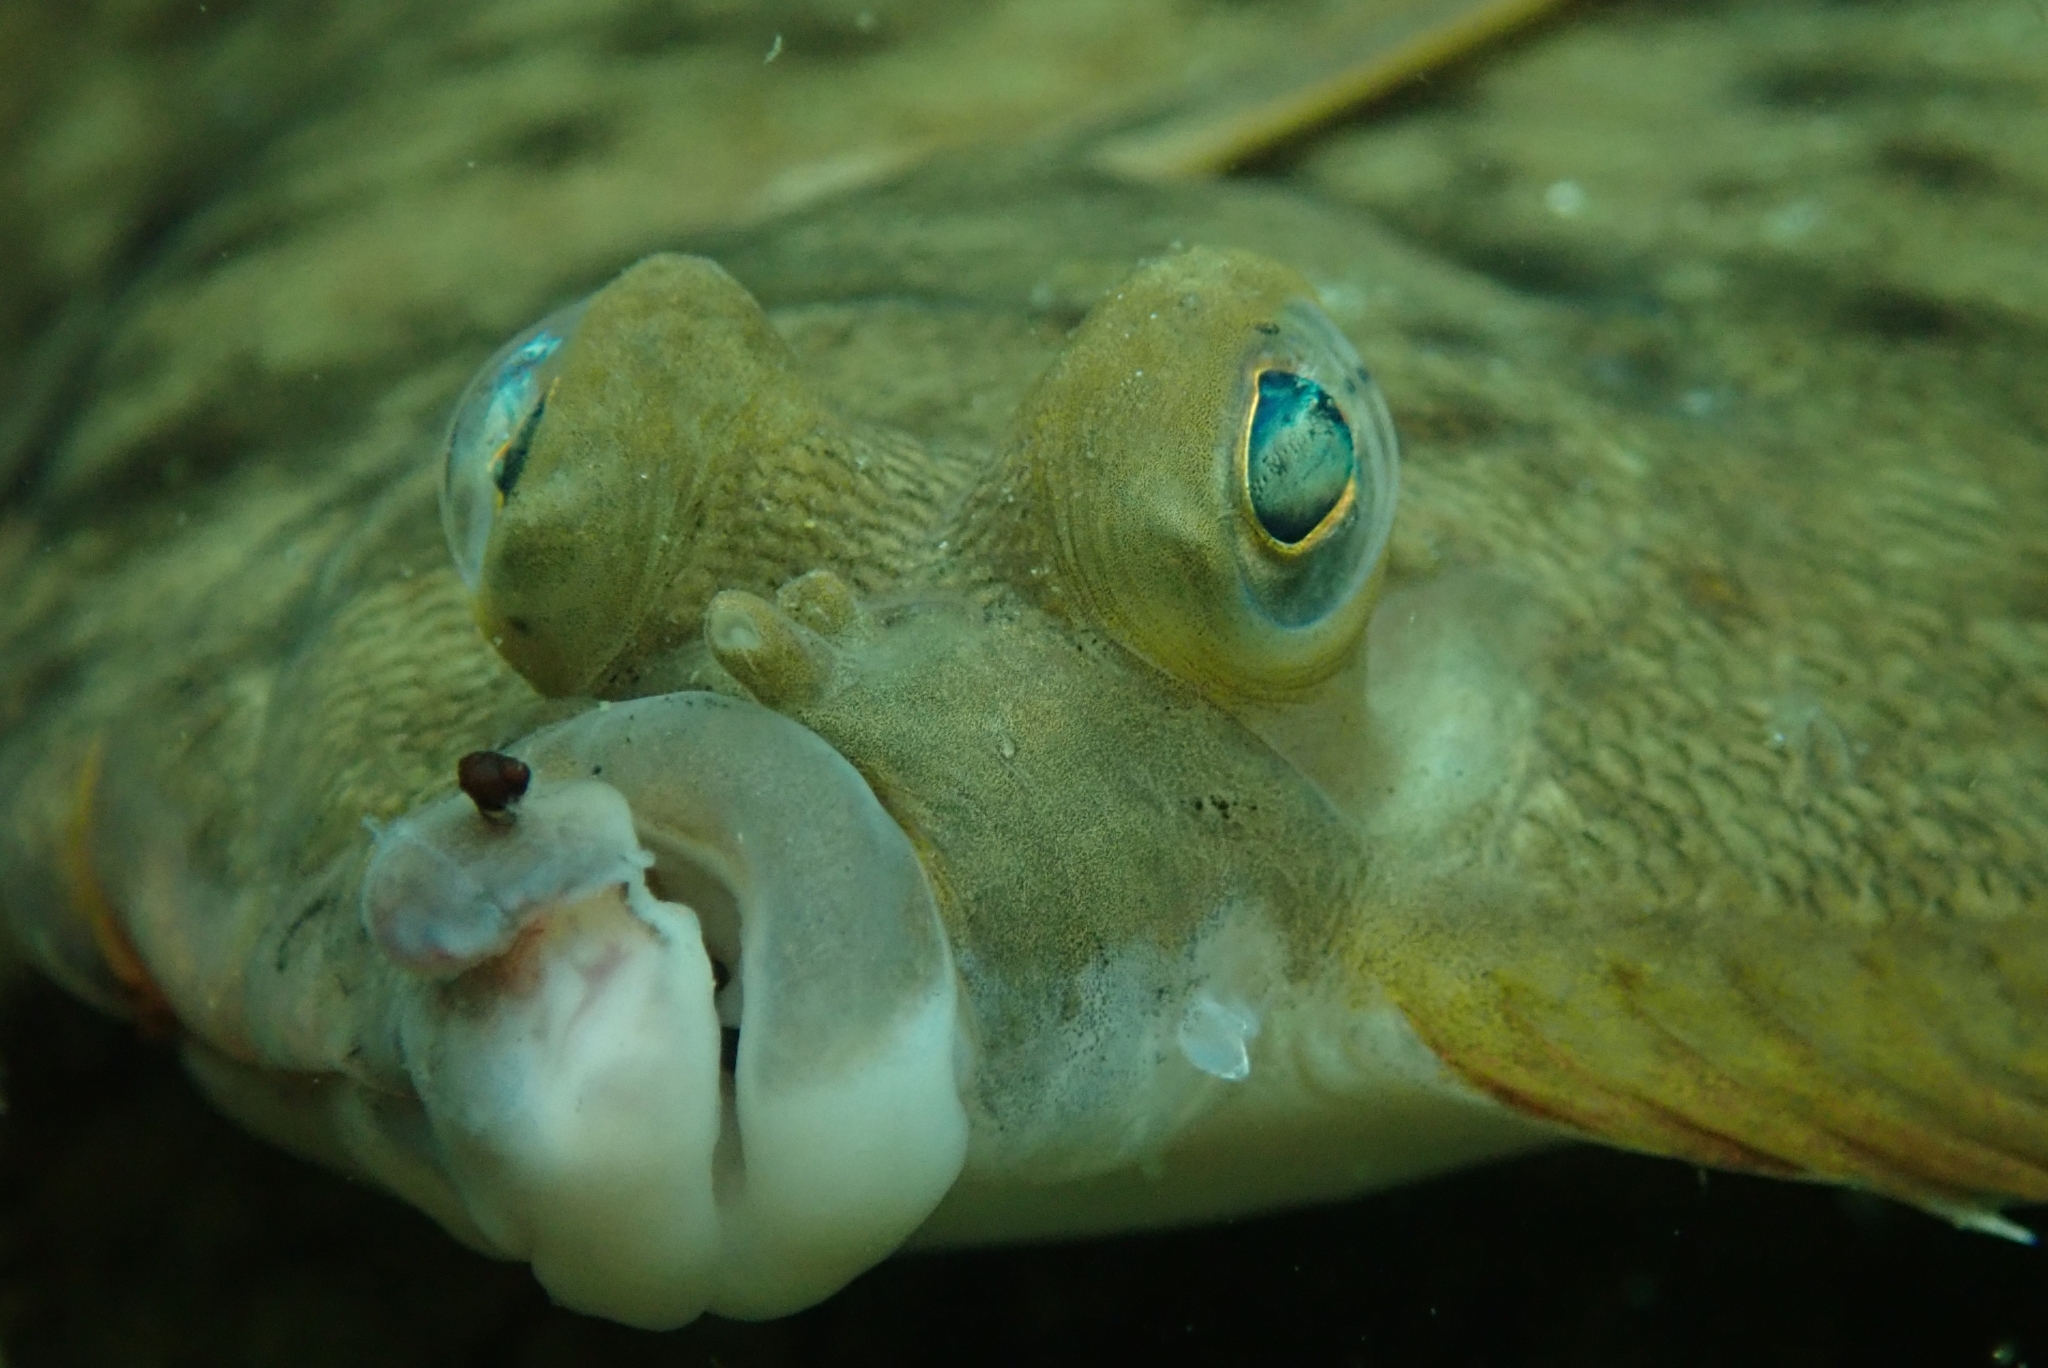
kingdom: Animalia
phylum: Chordata
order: Pleuronectiformes
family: Pleuronectidae
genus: Pseudopleuronectes
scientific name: Pseudopleuronectes americanus
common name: Black backs
